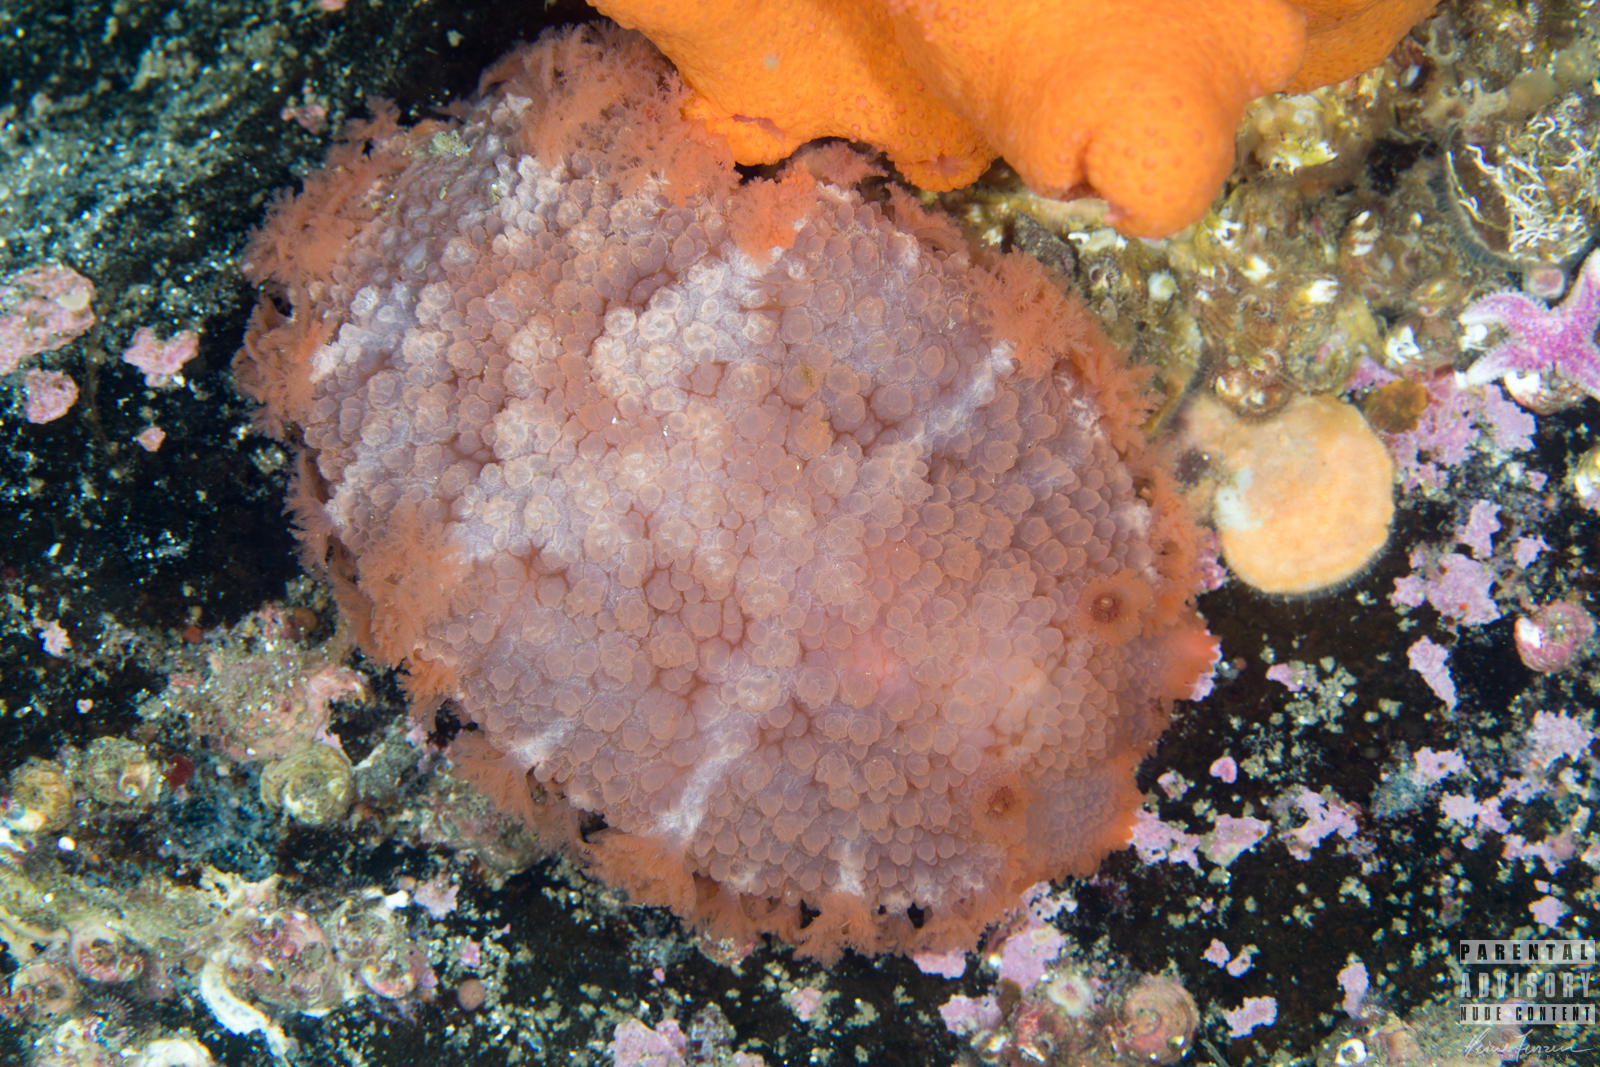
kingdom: Animalia
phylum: Mollusca
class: Gastropoda
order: Nudibranchia
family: Tritoniidae
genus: Tritonia
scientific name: Tritonia hombergii
